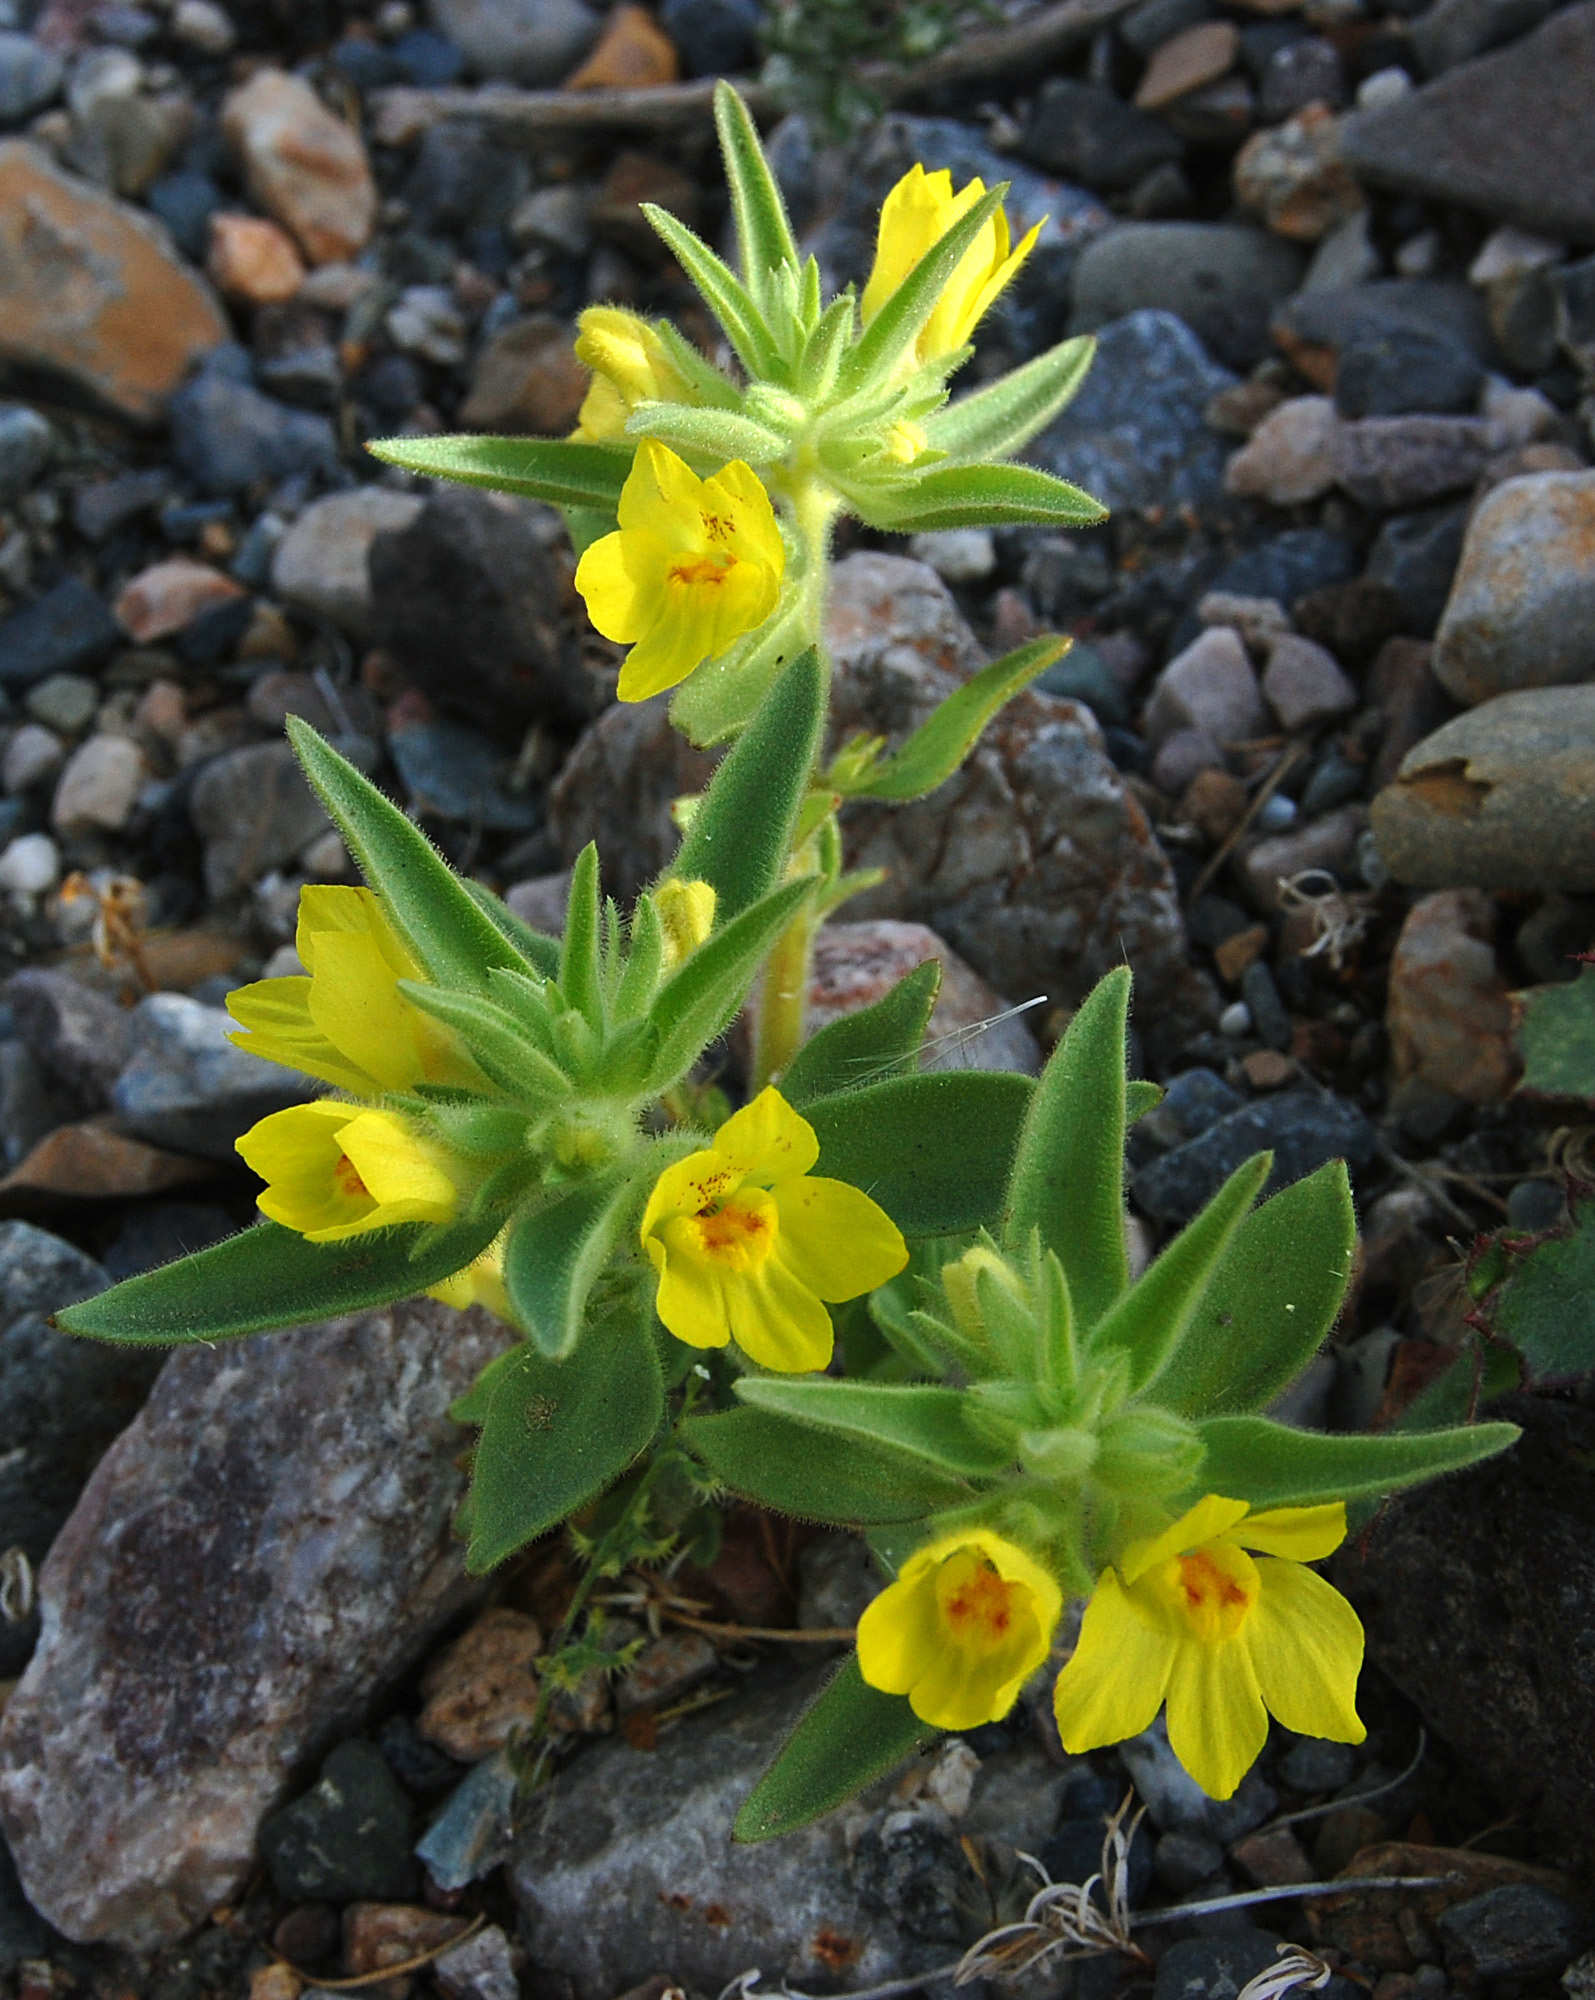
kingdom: Plantae
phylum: Tracheophyta
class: Magnoliopsida
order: Lamiales
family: Plantaginaceae
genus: Mohavea
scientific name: Mohavea breviflora
